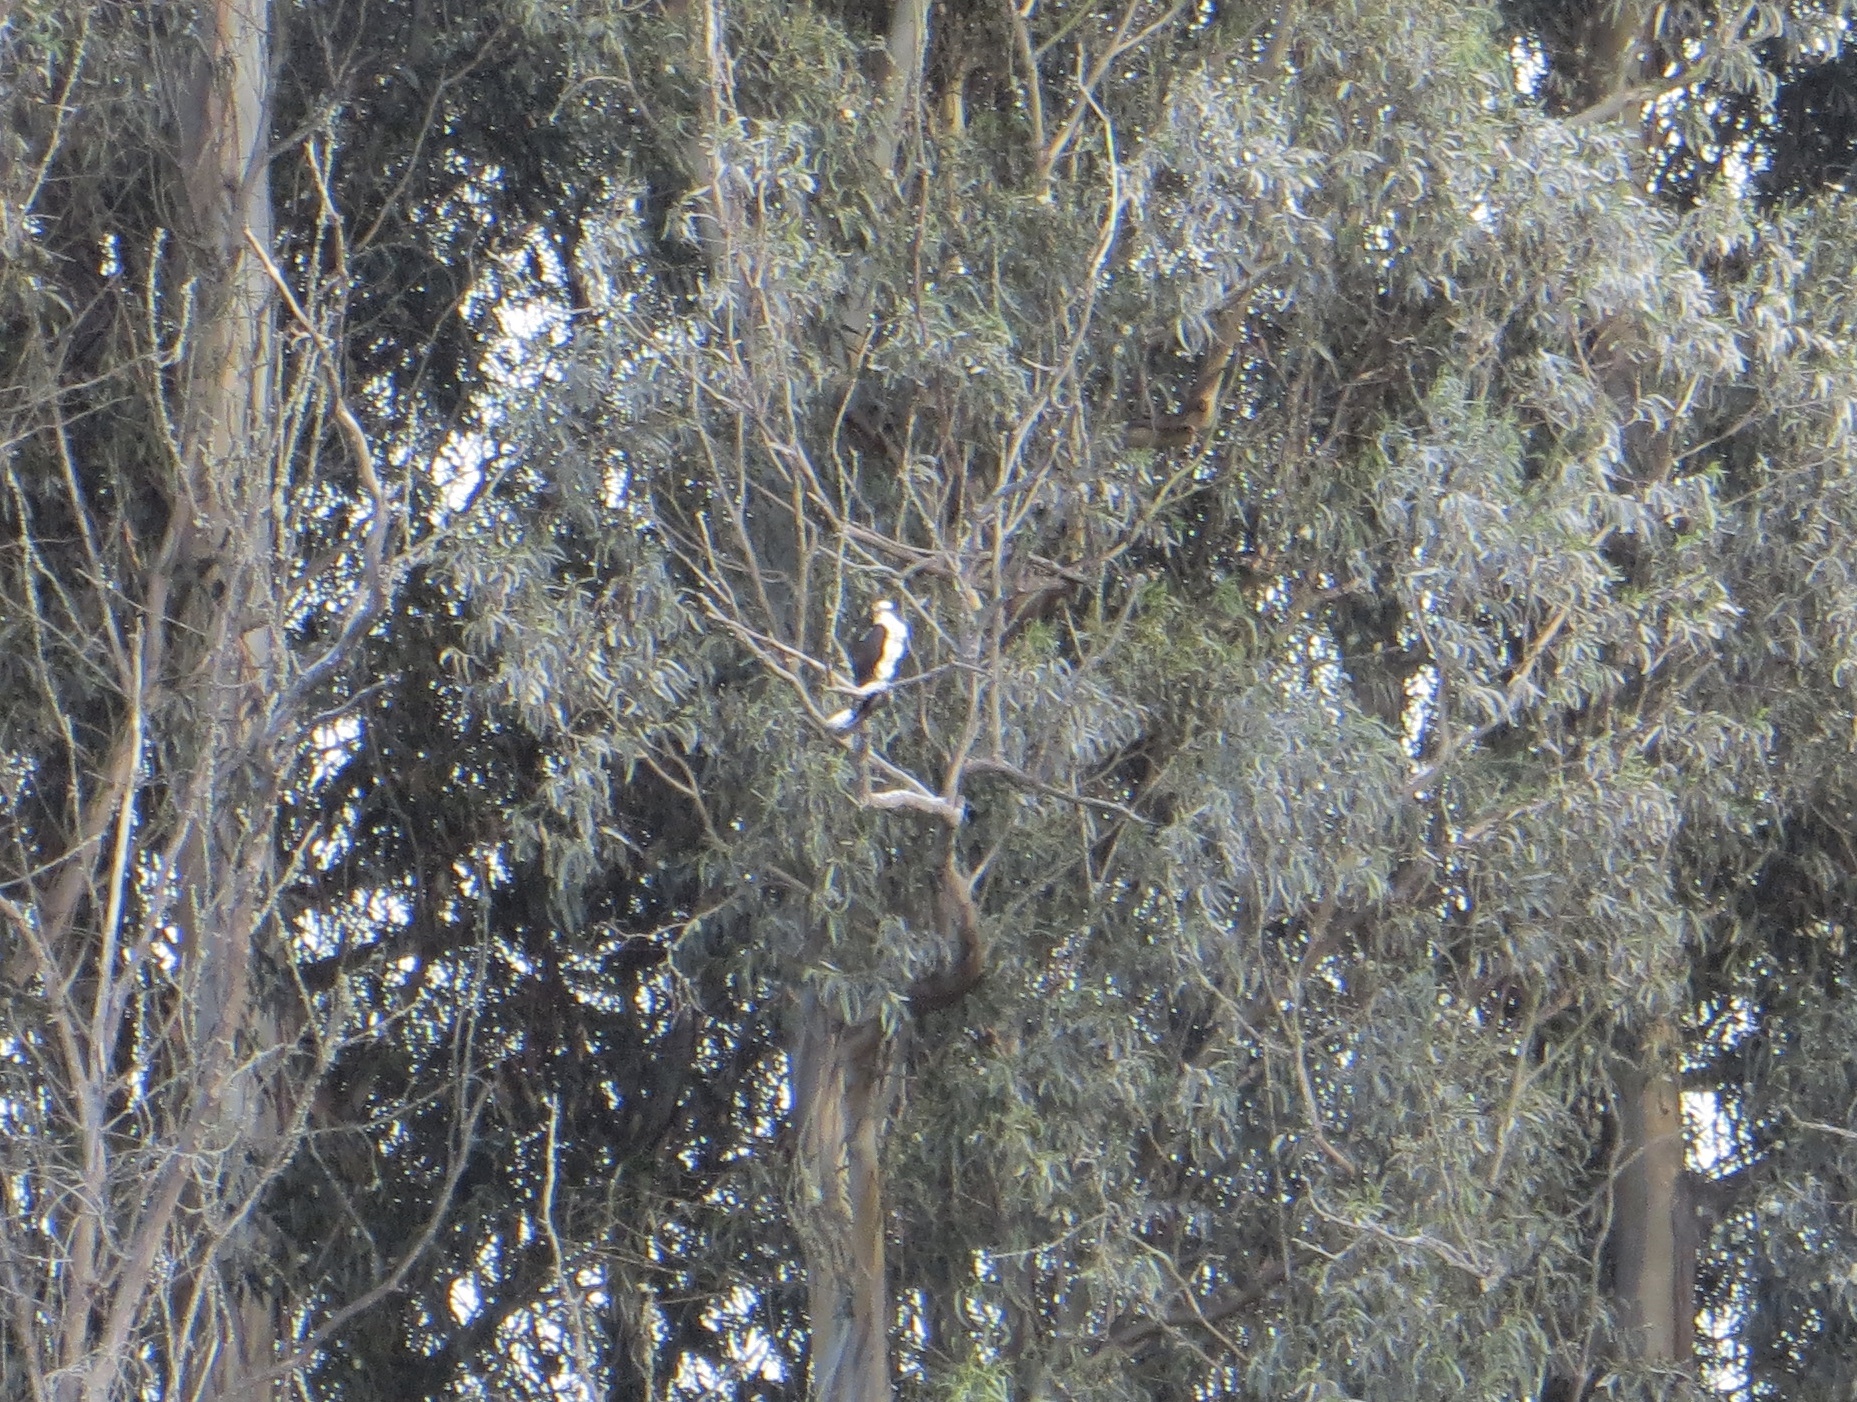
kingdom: Animalia
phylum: Chordata
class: Aves
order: Accipitriformes
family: Pandionidae
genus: Pandion
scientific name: Pandion haliaetus
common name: Osprey
